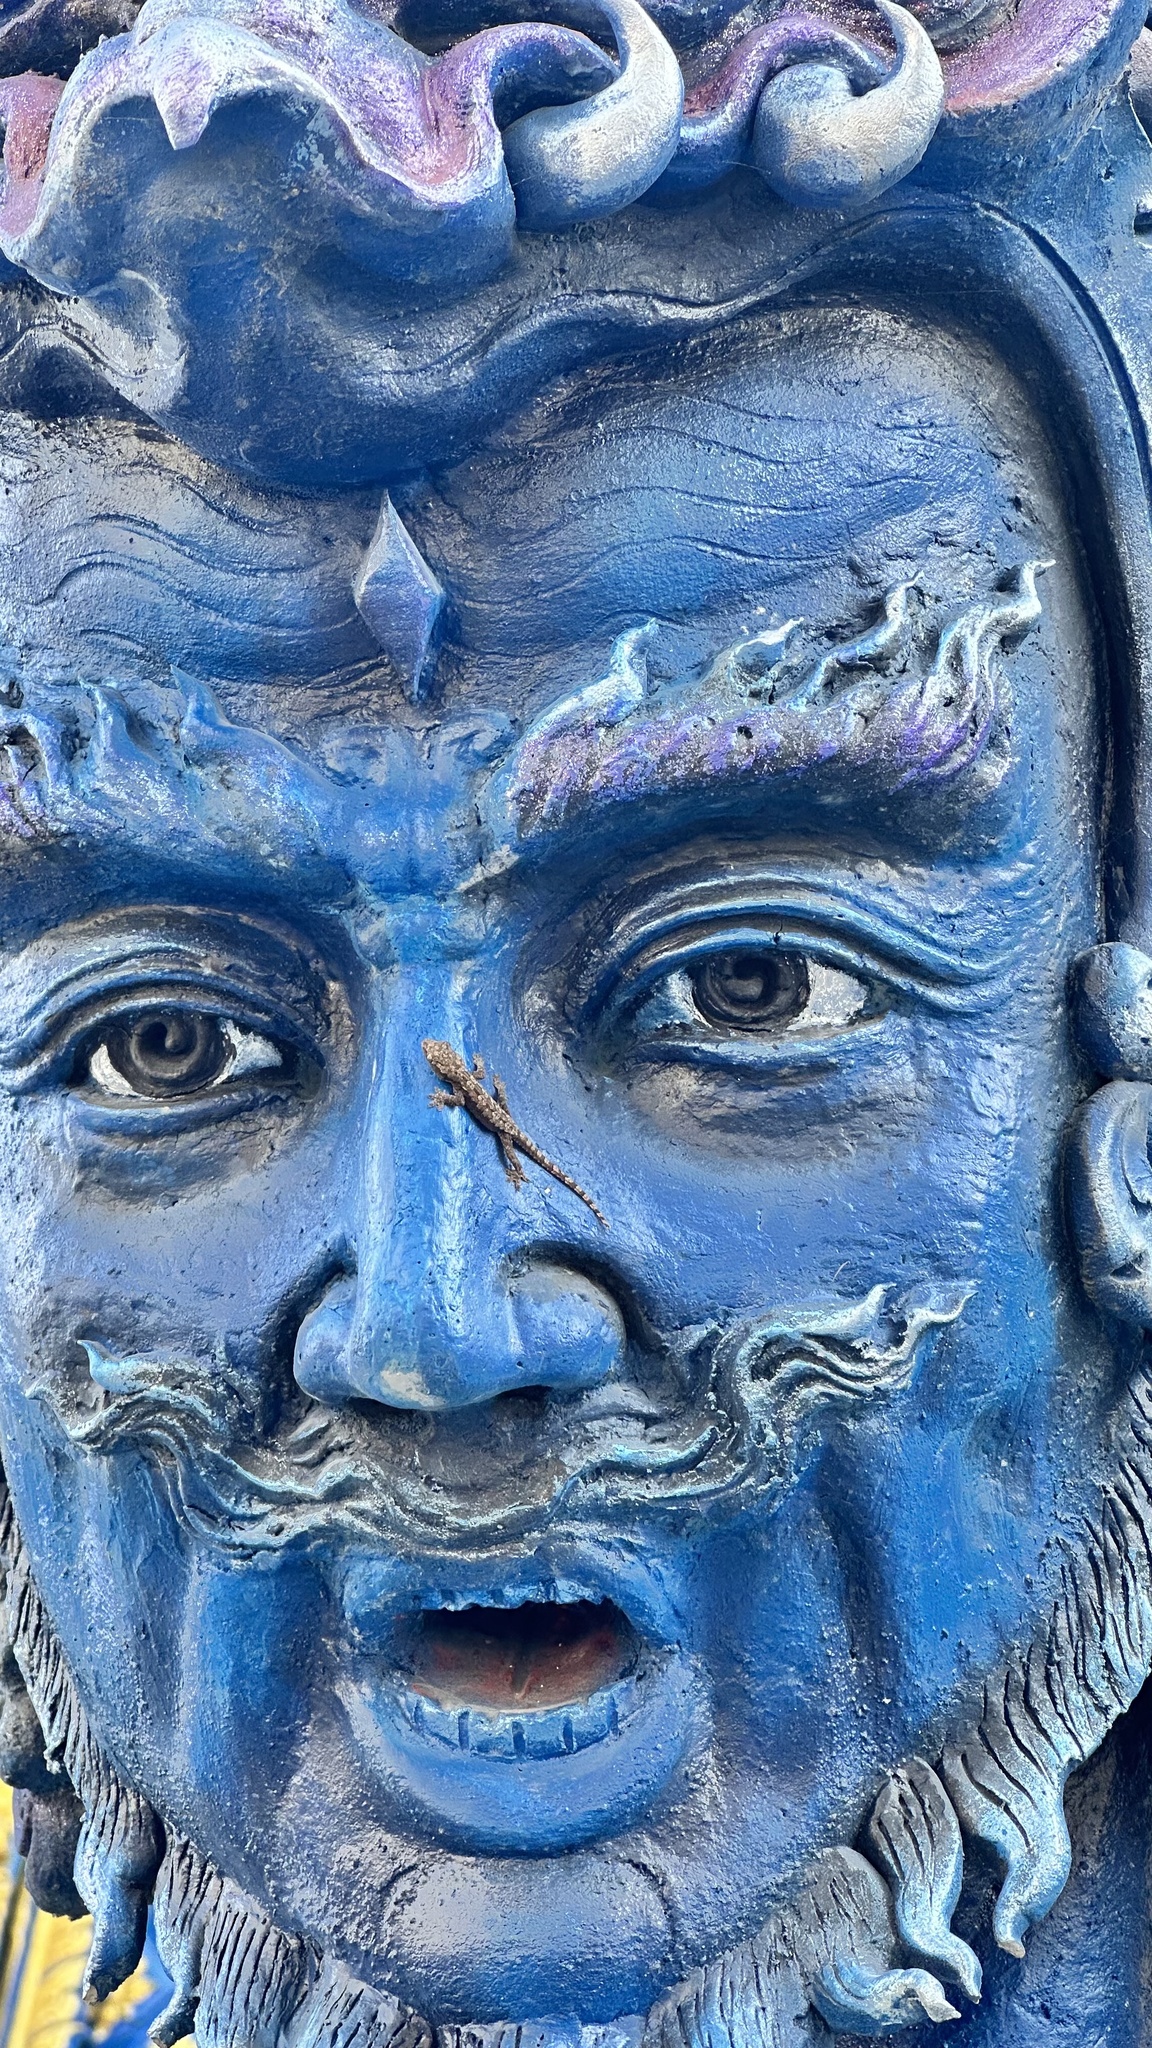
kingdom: Animalia
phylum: Chordata
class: Squamata
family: Gekkonidae
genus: Hemidactylus
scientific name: Hemidactylus platyurus
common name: Flat-tailed house gecko
